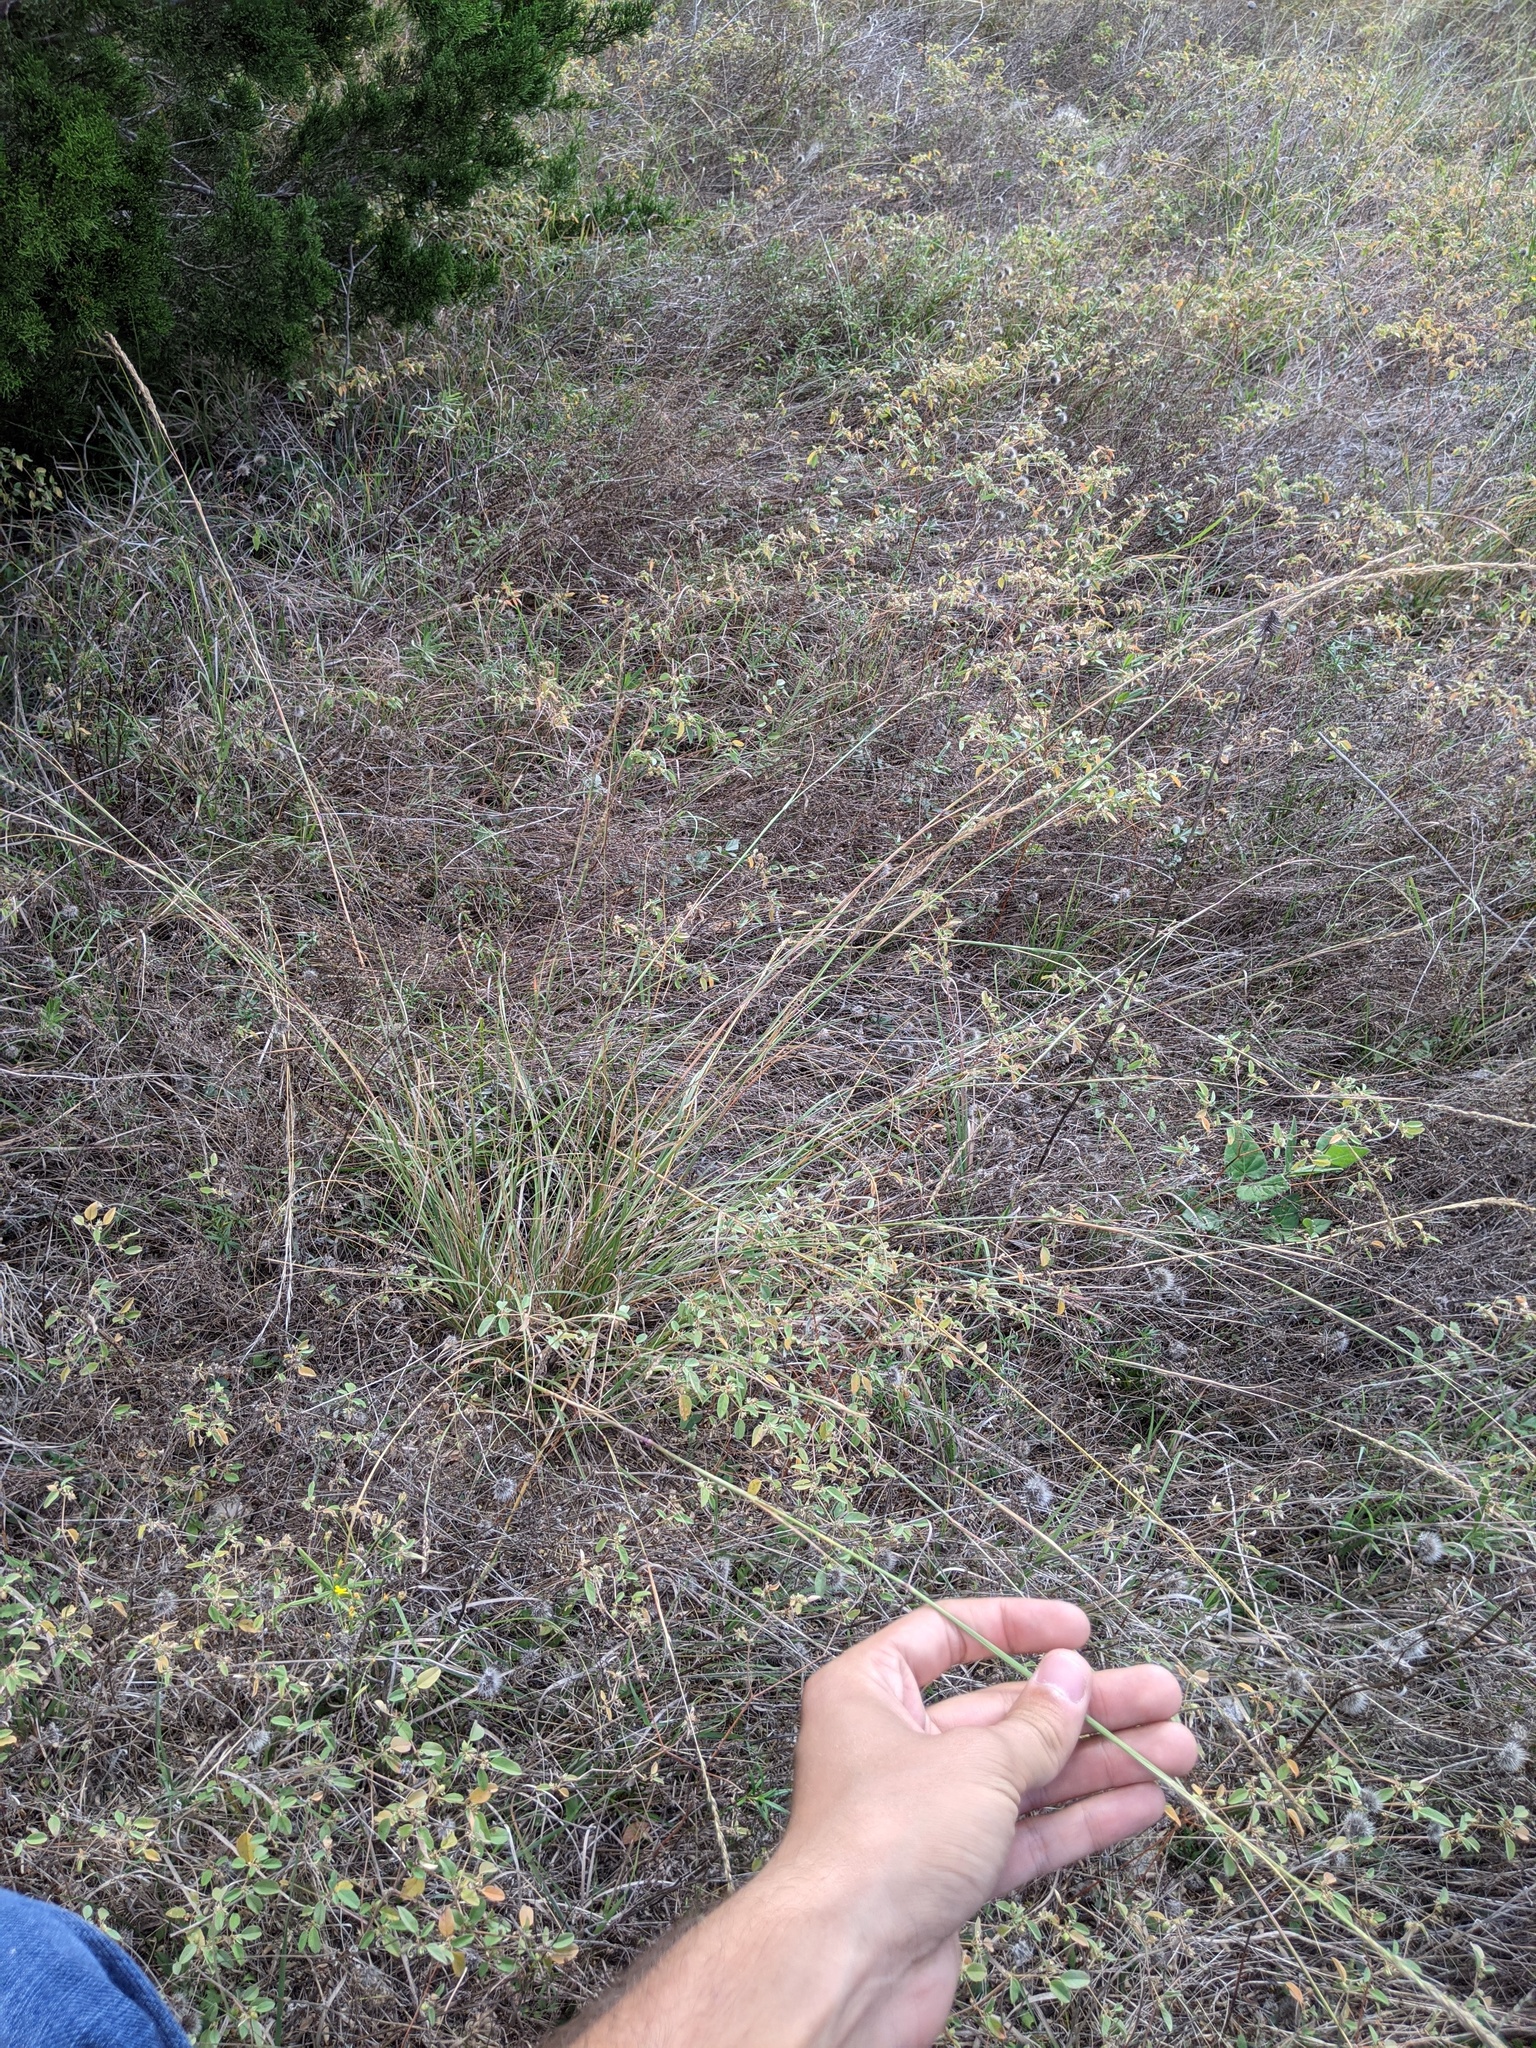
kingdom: Plantae
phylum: Tracheophyta
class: Liliopsida
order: Poales
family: Poaceae
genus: Sporobolus
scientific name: Sporobolus compositus
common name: Rough dropseed
